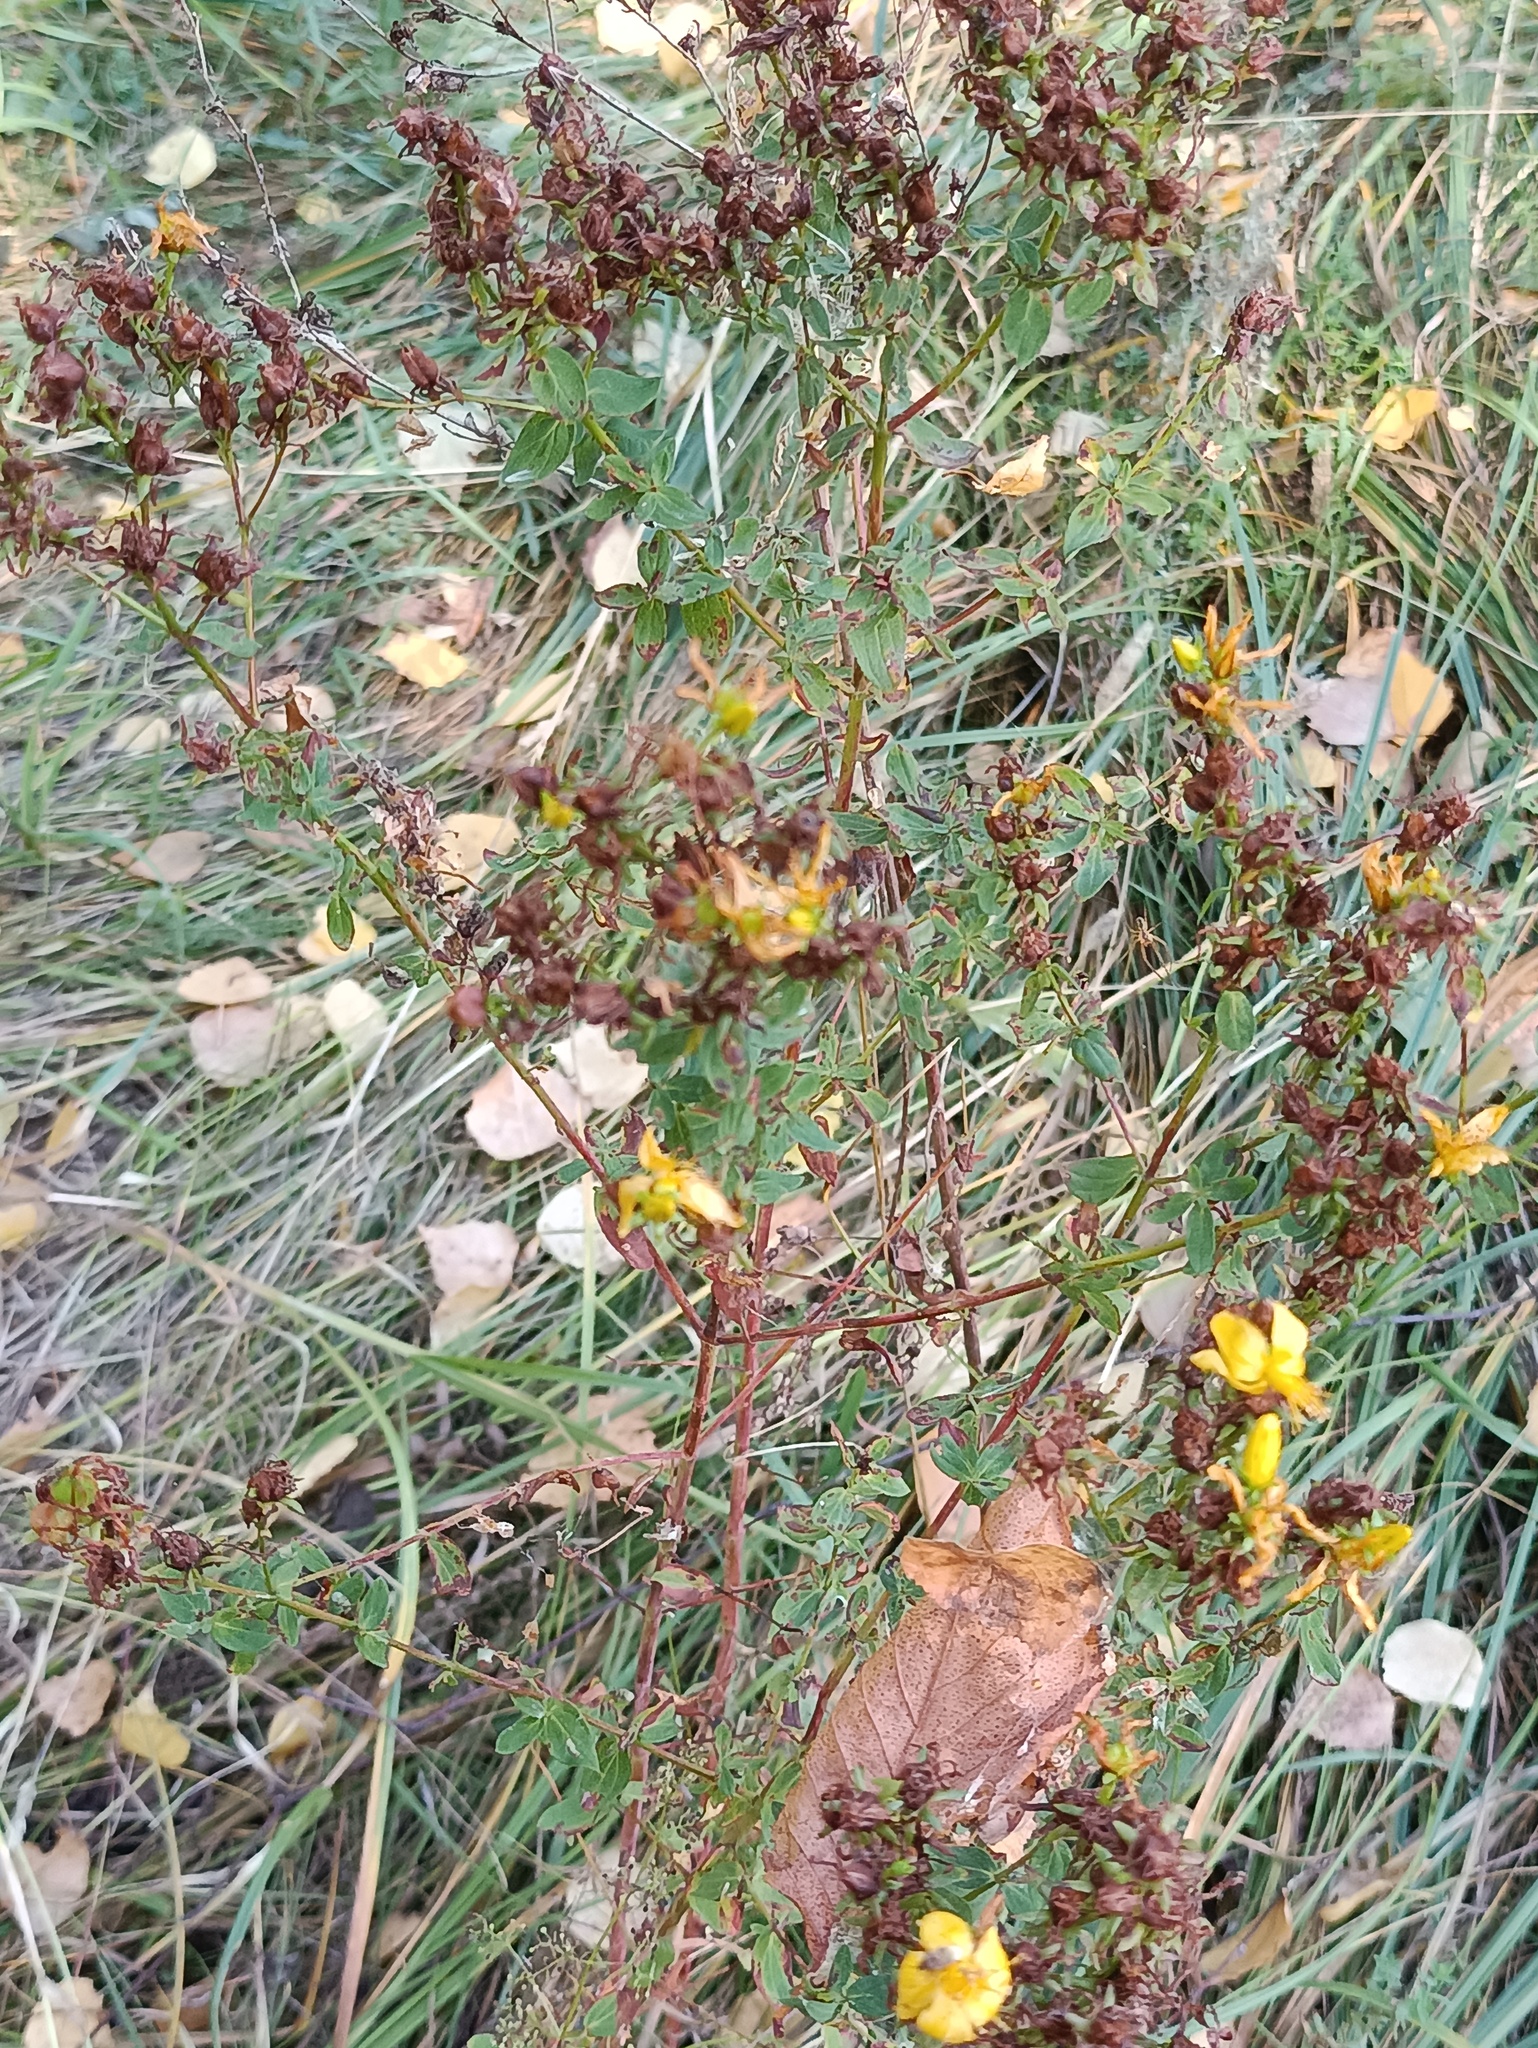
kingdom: Plantae
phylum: Tracheophyta
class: Magnoliopsida
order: Malpighiales
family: Hypericaceae
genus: Hypericum
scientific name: Hypericum perforatum
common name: Common st. johnswort
